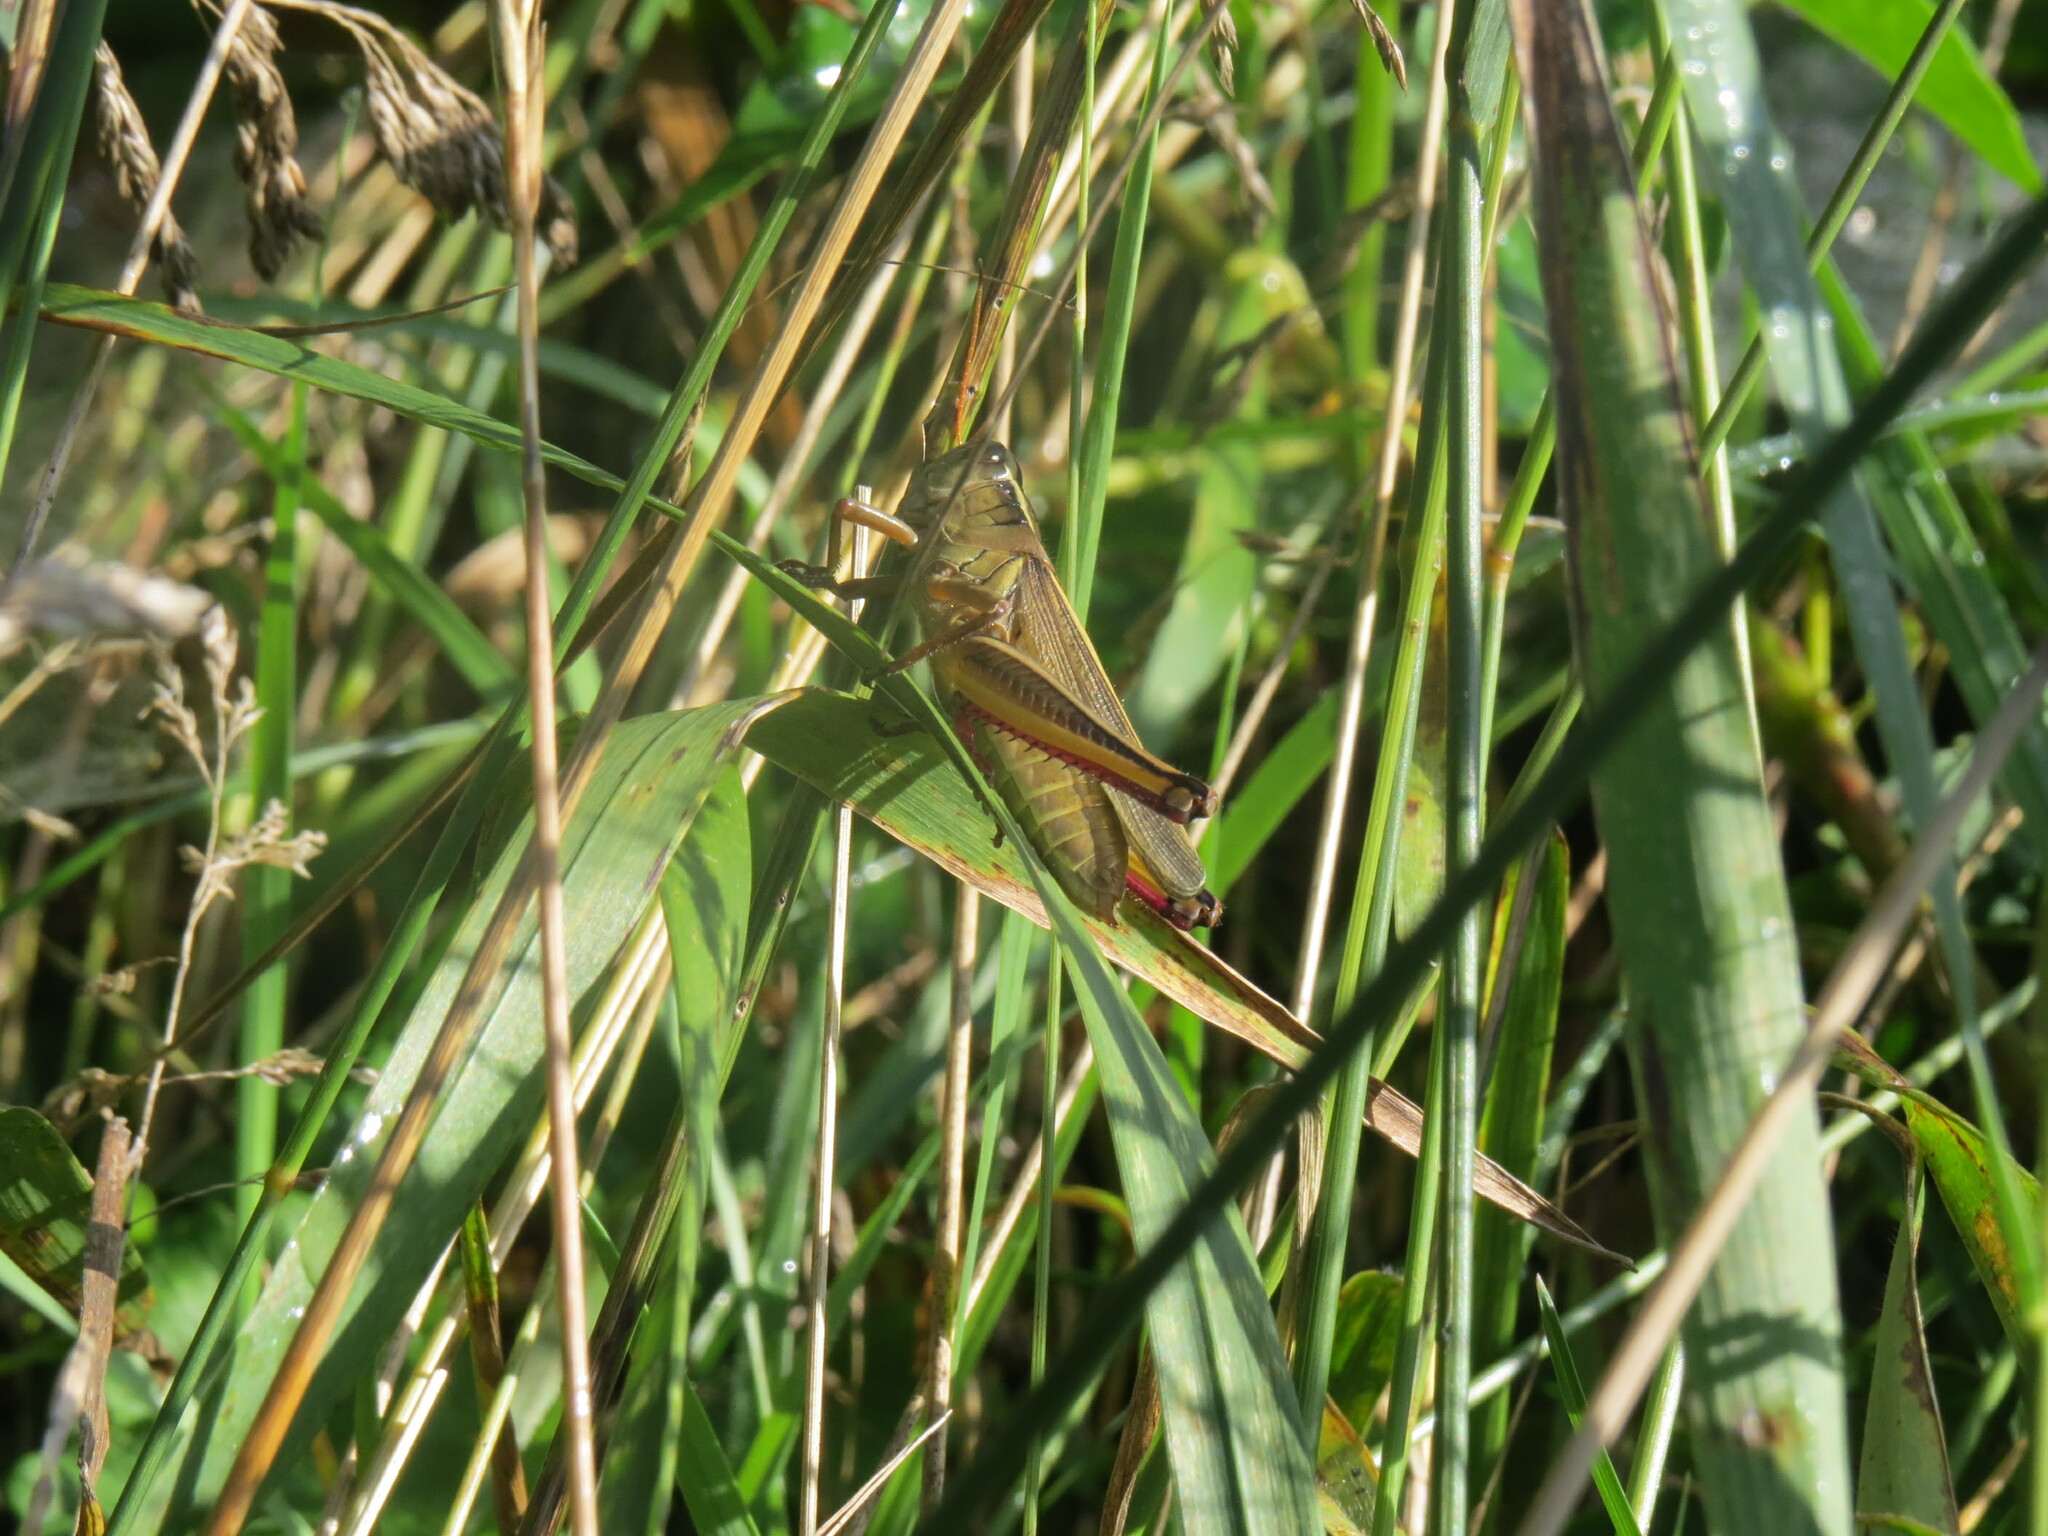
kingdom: Animalia
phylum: Arthropoda
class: Insecta
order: Orthoptera
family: Acrididae
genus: Melanoplus
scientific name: Melanoplus bivittatus
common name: Two-striped grasshopper
